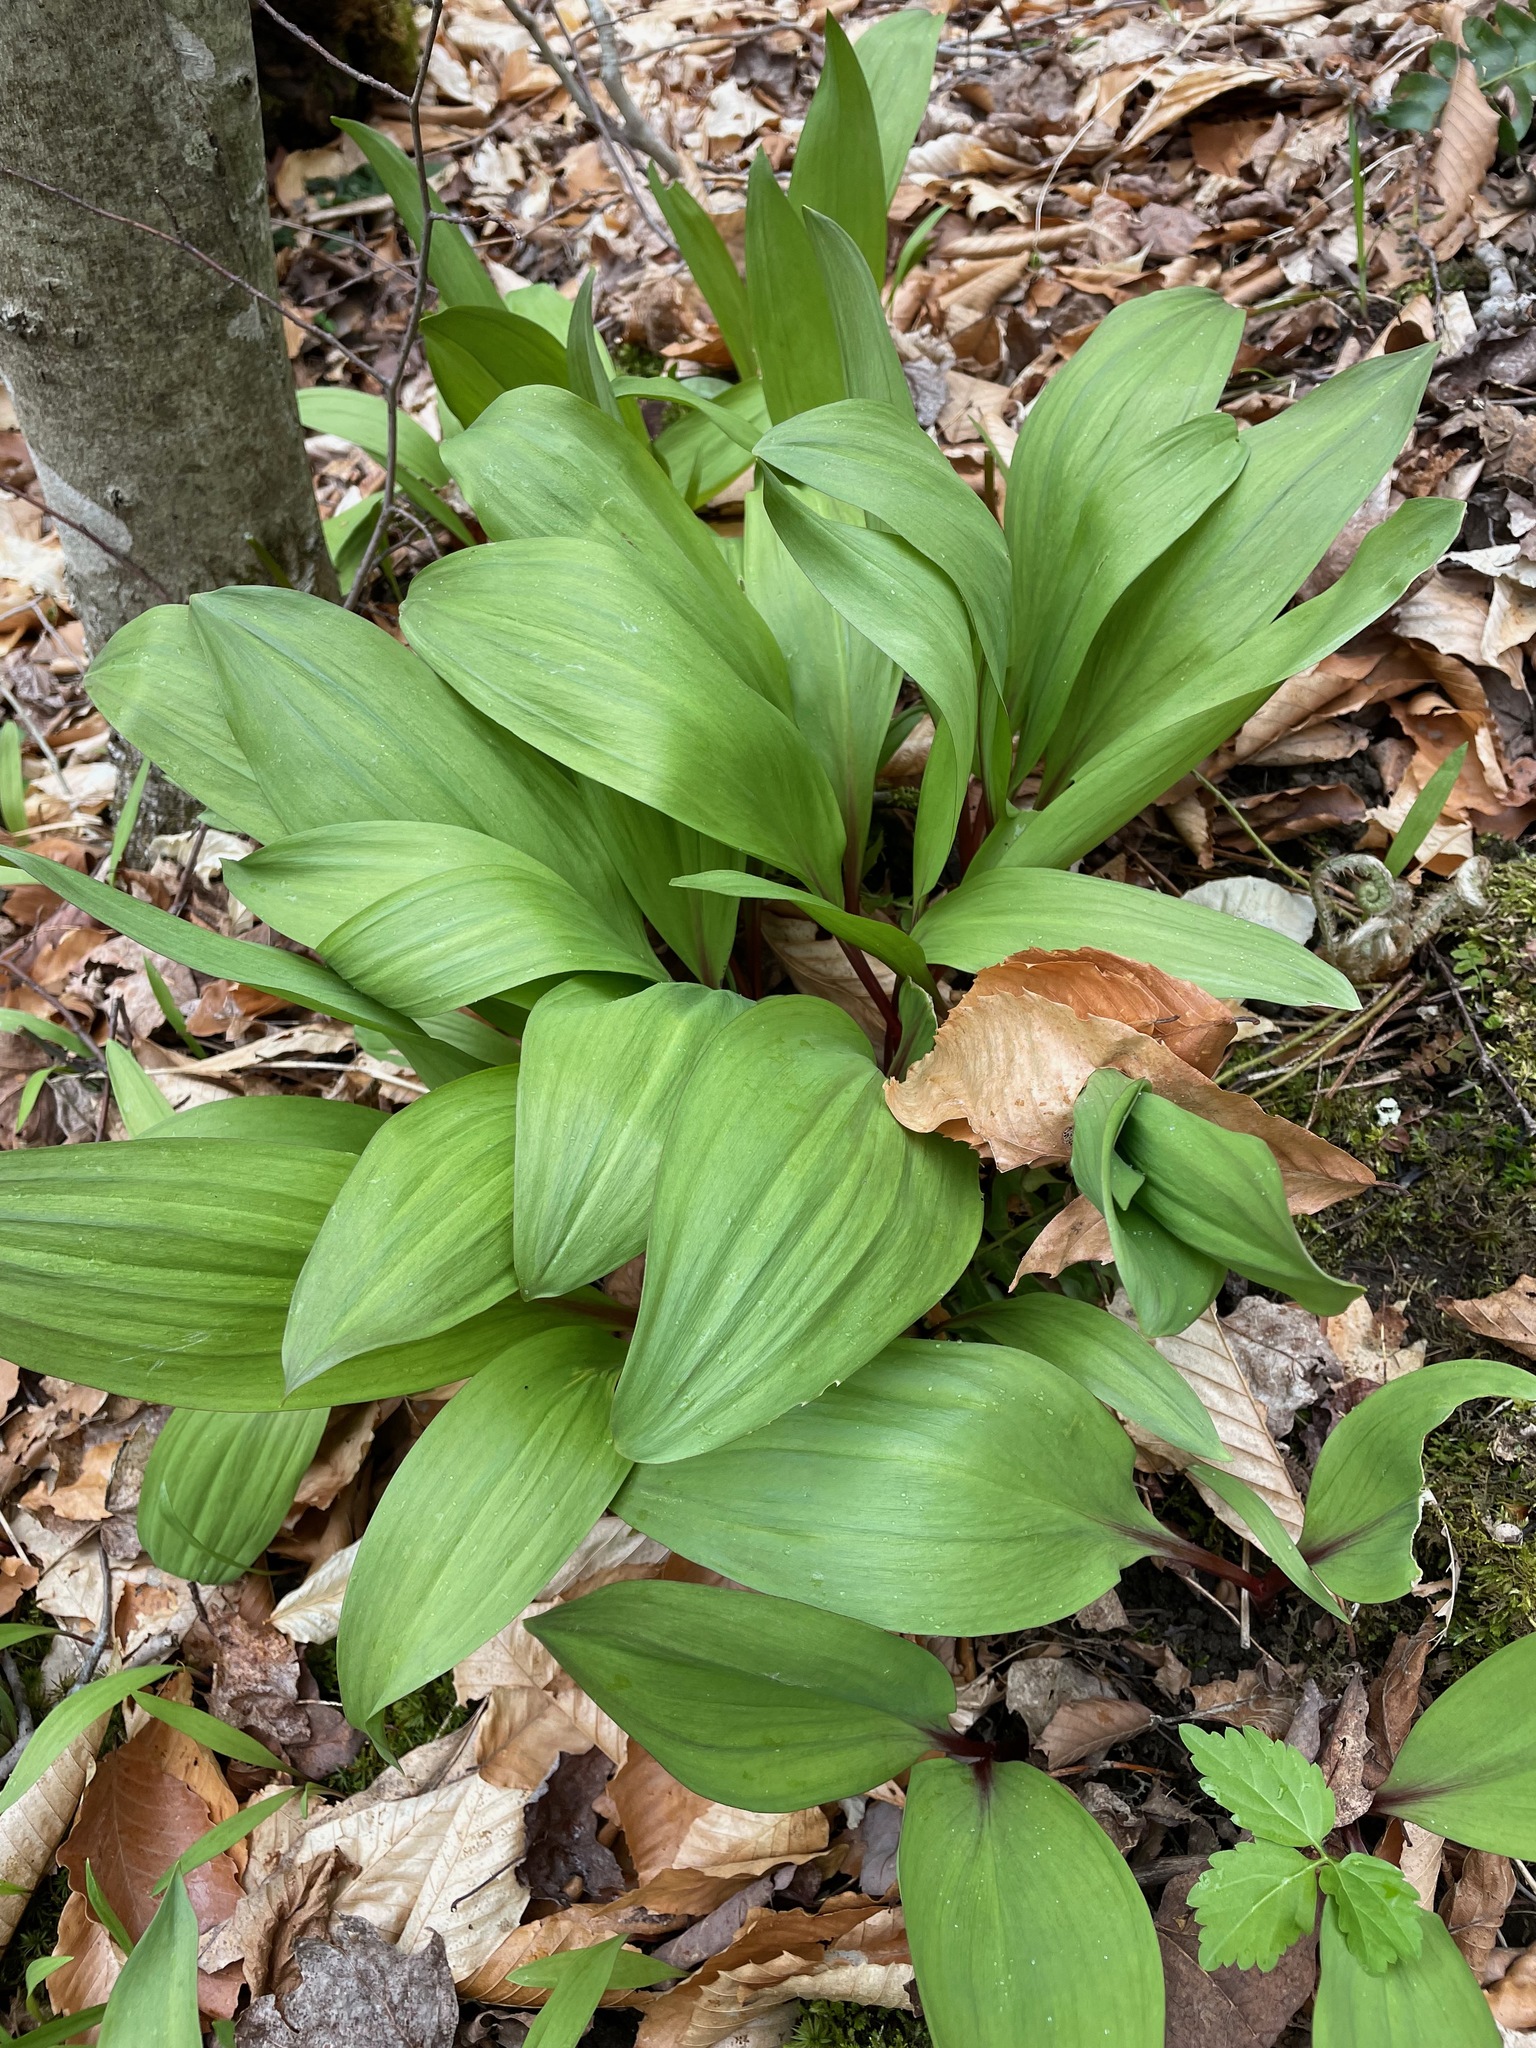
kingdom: Plantae
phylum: Tracheophyta
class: Liliopsida
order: Asparagales
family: Amaryllidaceae
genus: Allium
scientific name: Allium tricoccum
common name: Ramp
